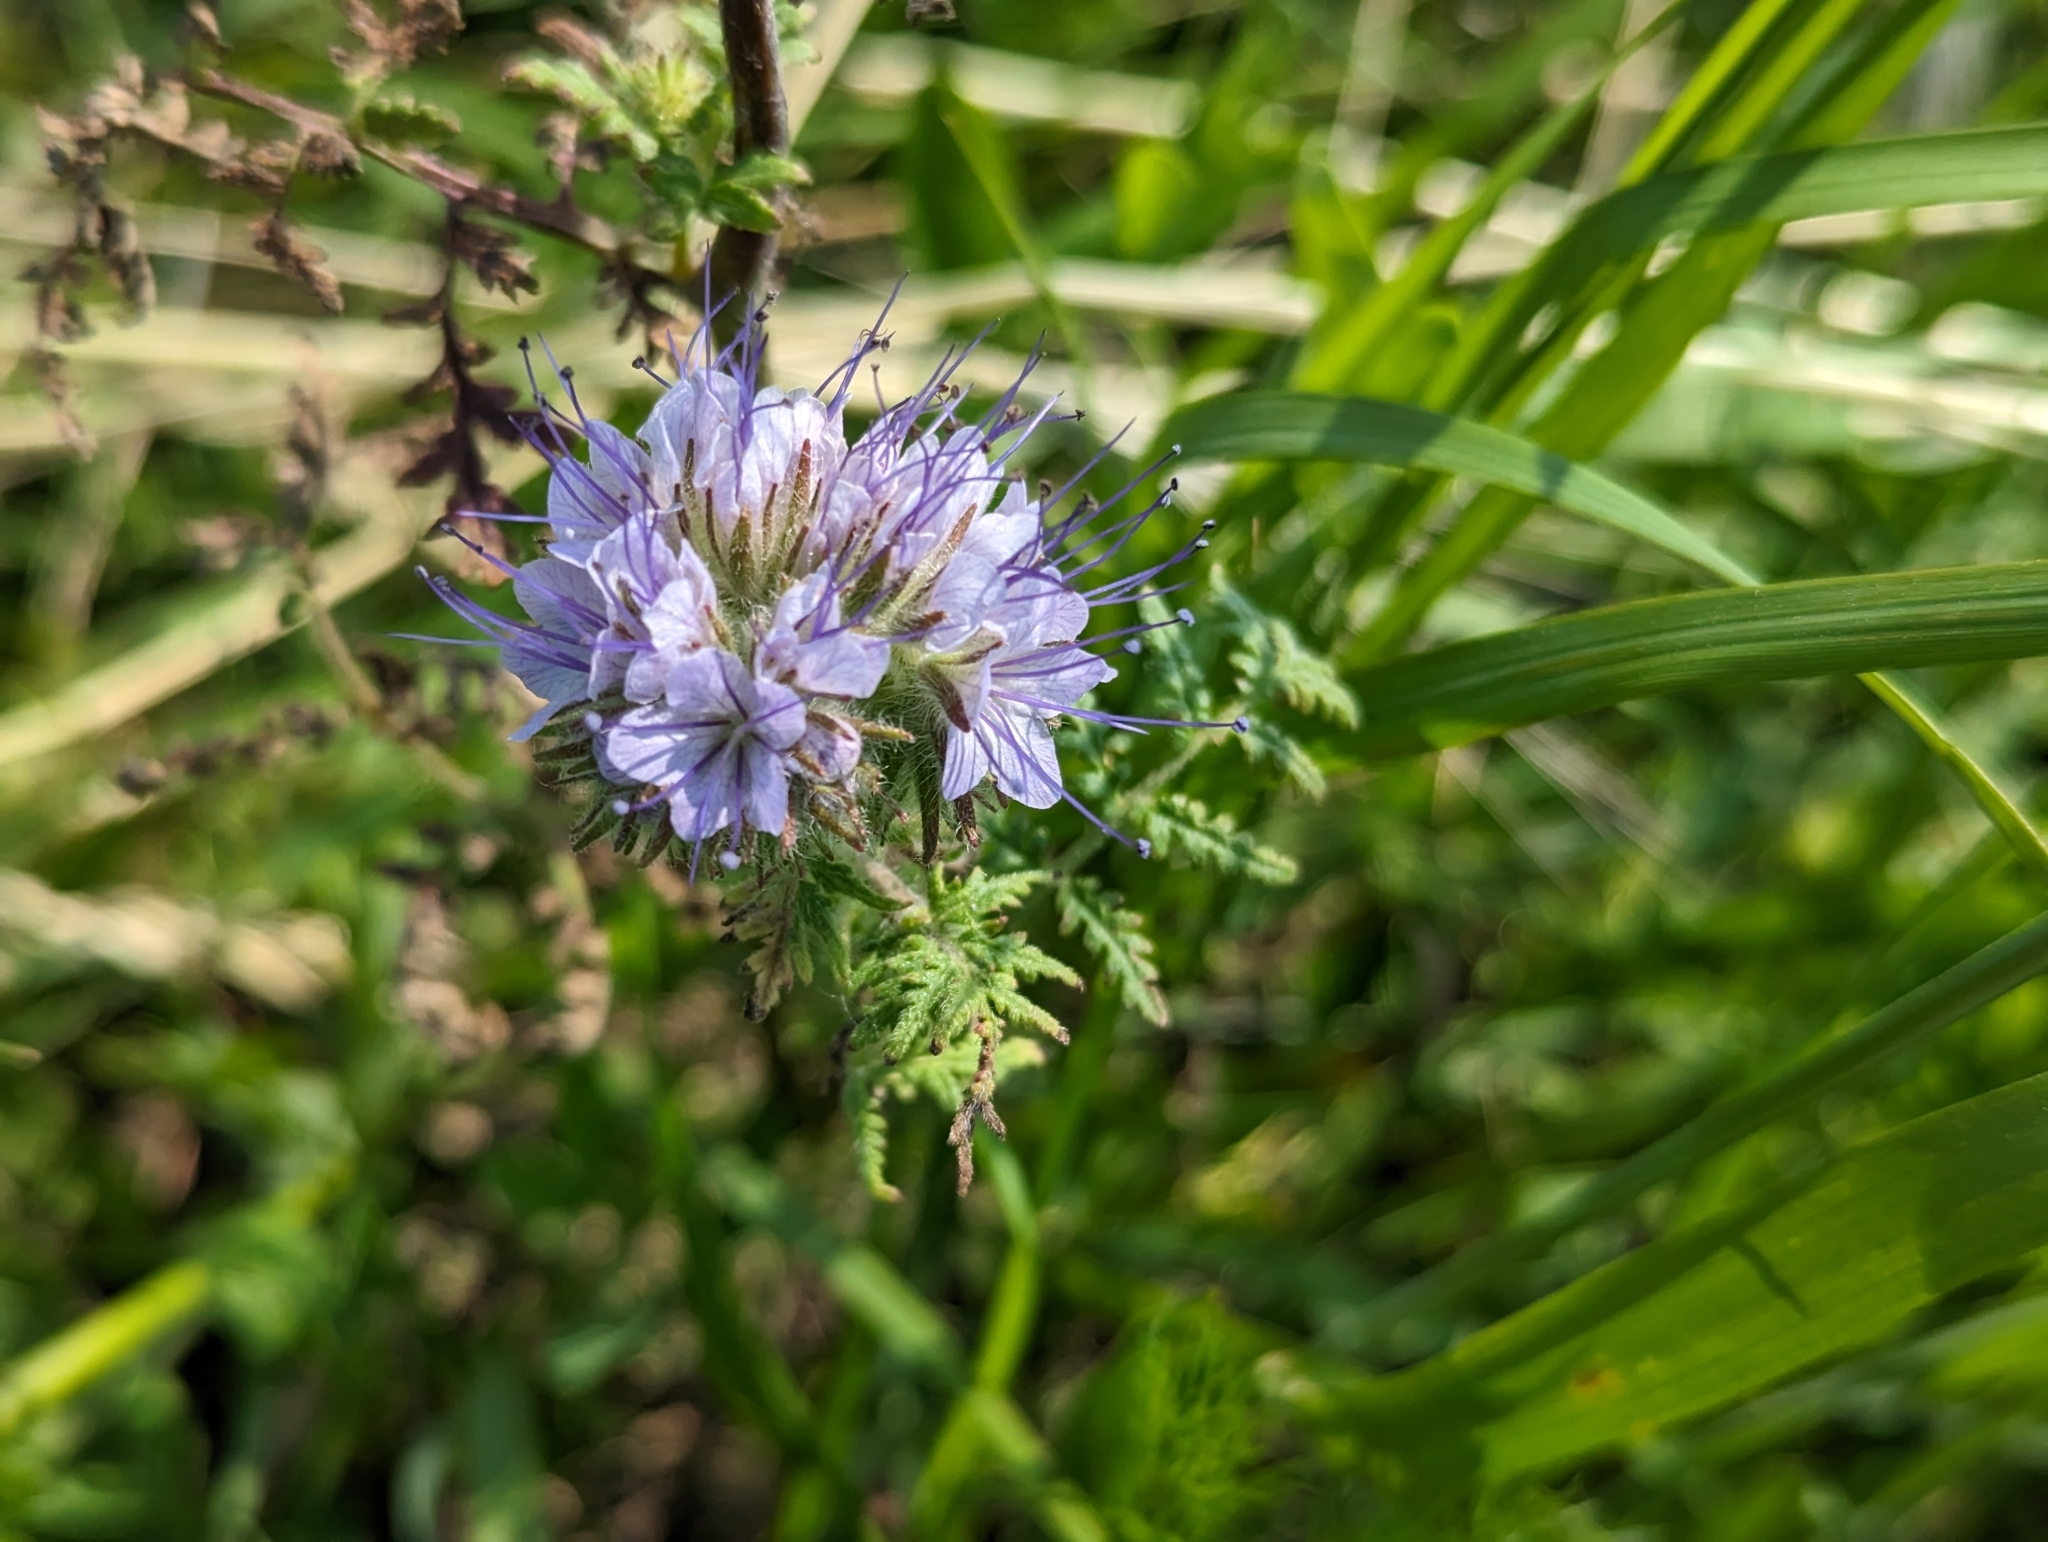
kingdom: Plantae
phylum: Tracheophyta
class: Magnoliopsida
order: Boraginales
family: Hydrophyllaceae
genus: Phacelia
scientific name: Phacelia tanacetifolia
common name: Phacelia
